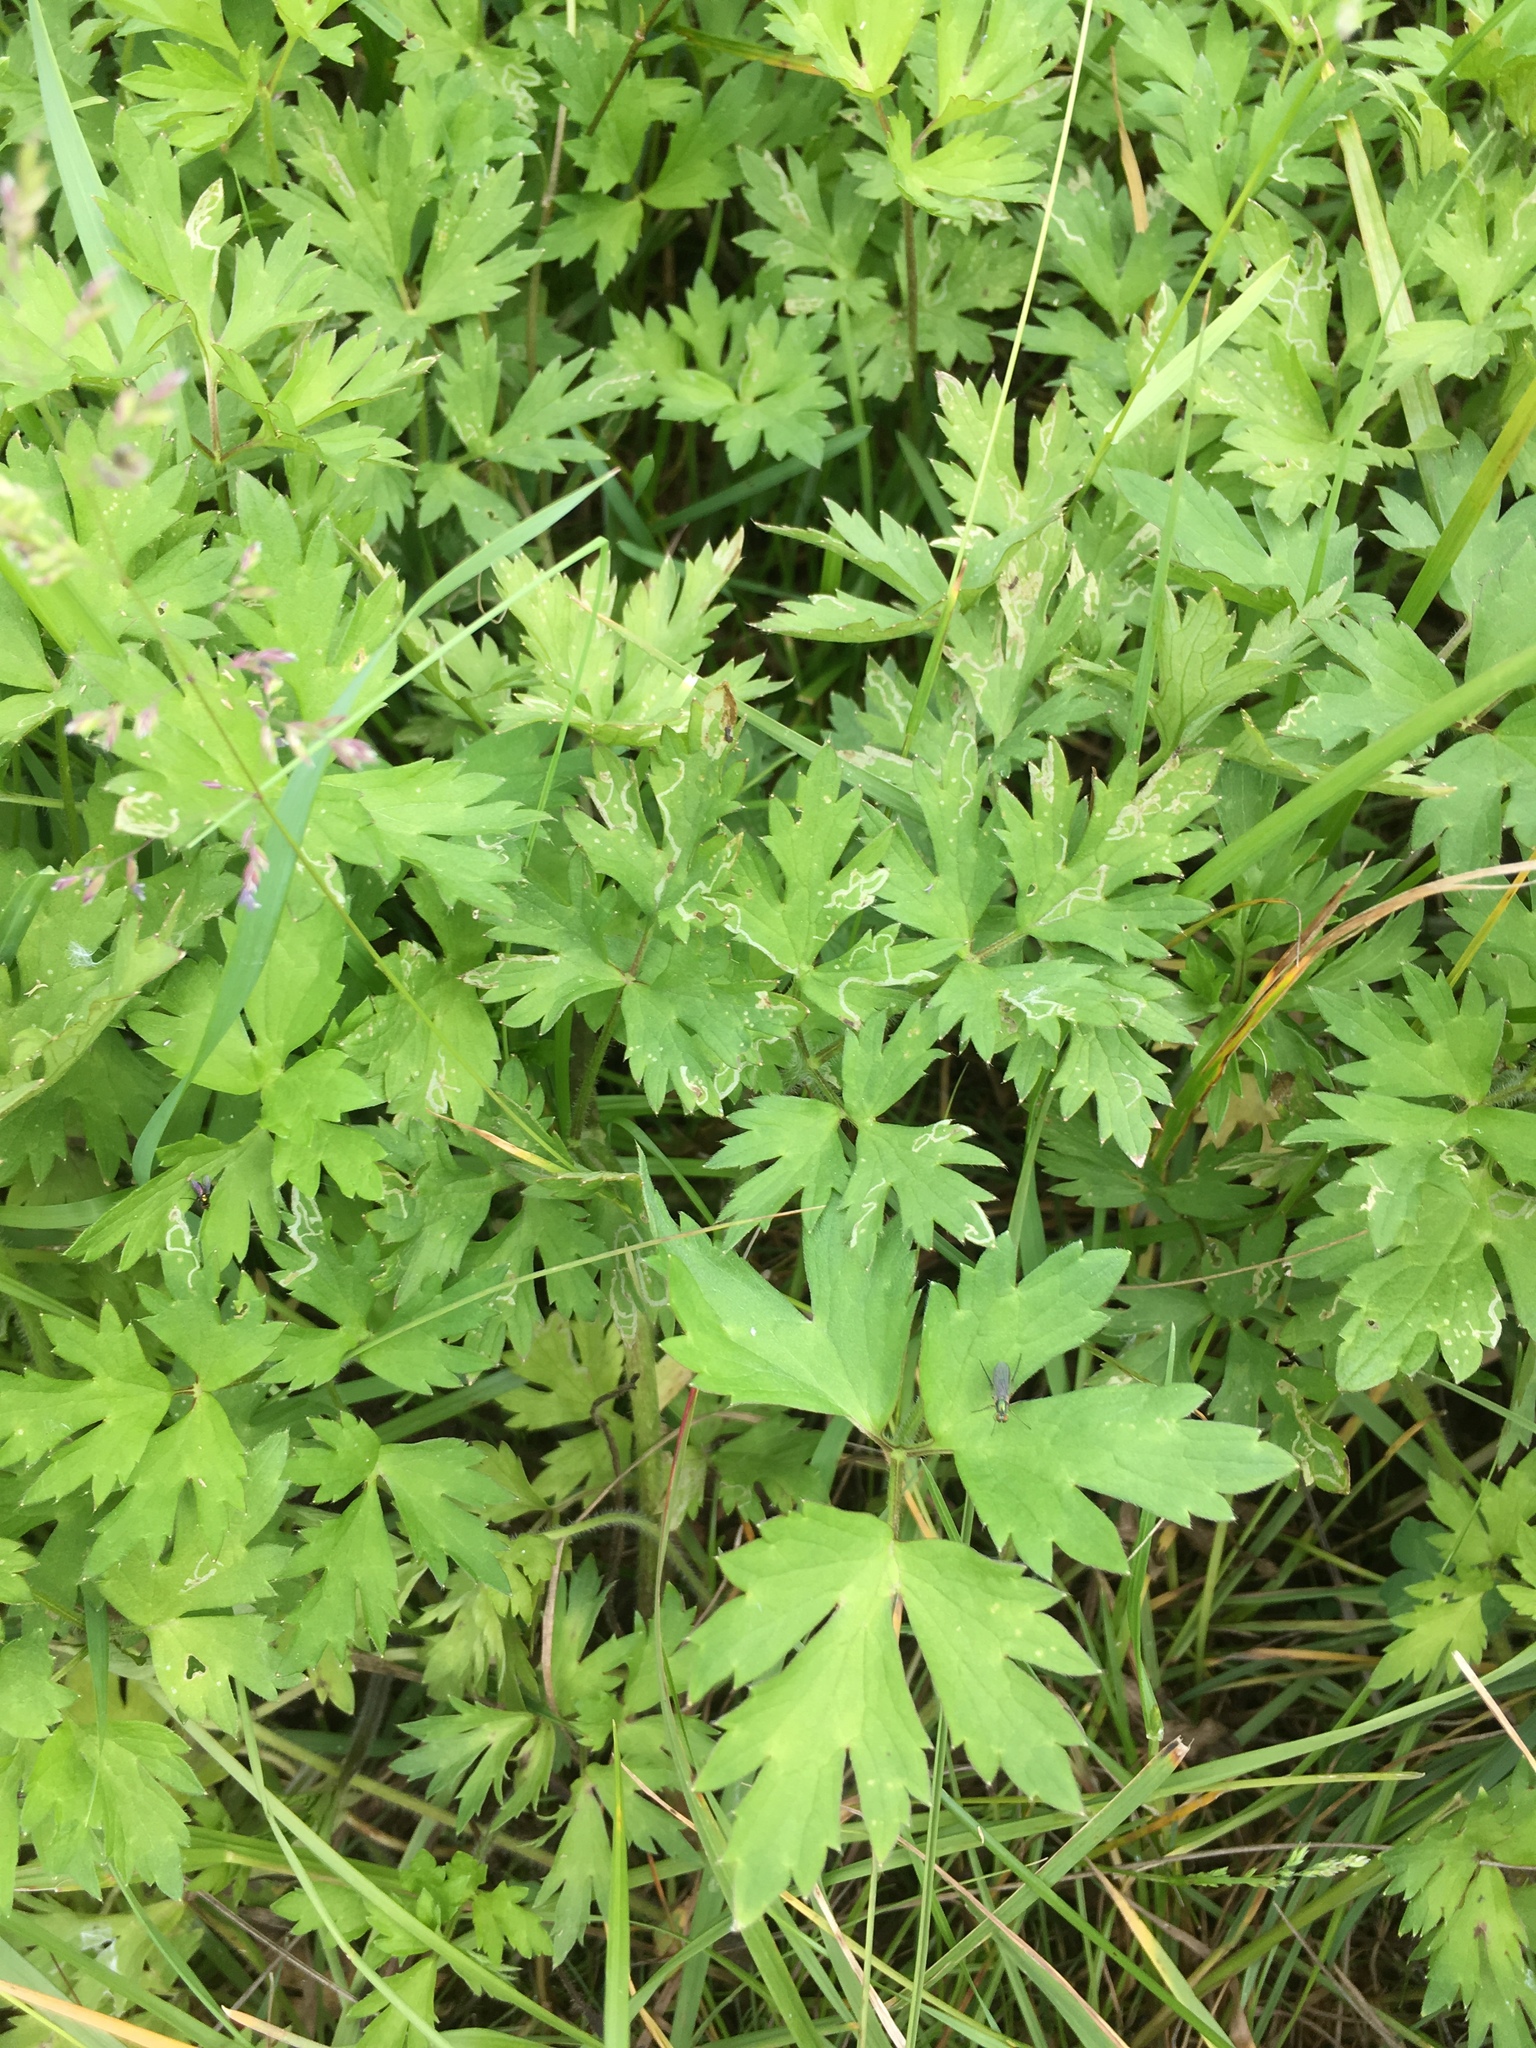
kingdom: Plantae
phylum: Tracheophyta
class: Magnoliopsida
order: Ranunculales
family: Ranunculaceae
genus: Ranunculus
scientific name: Ranunculus repens
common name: Creeping buttercup
